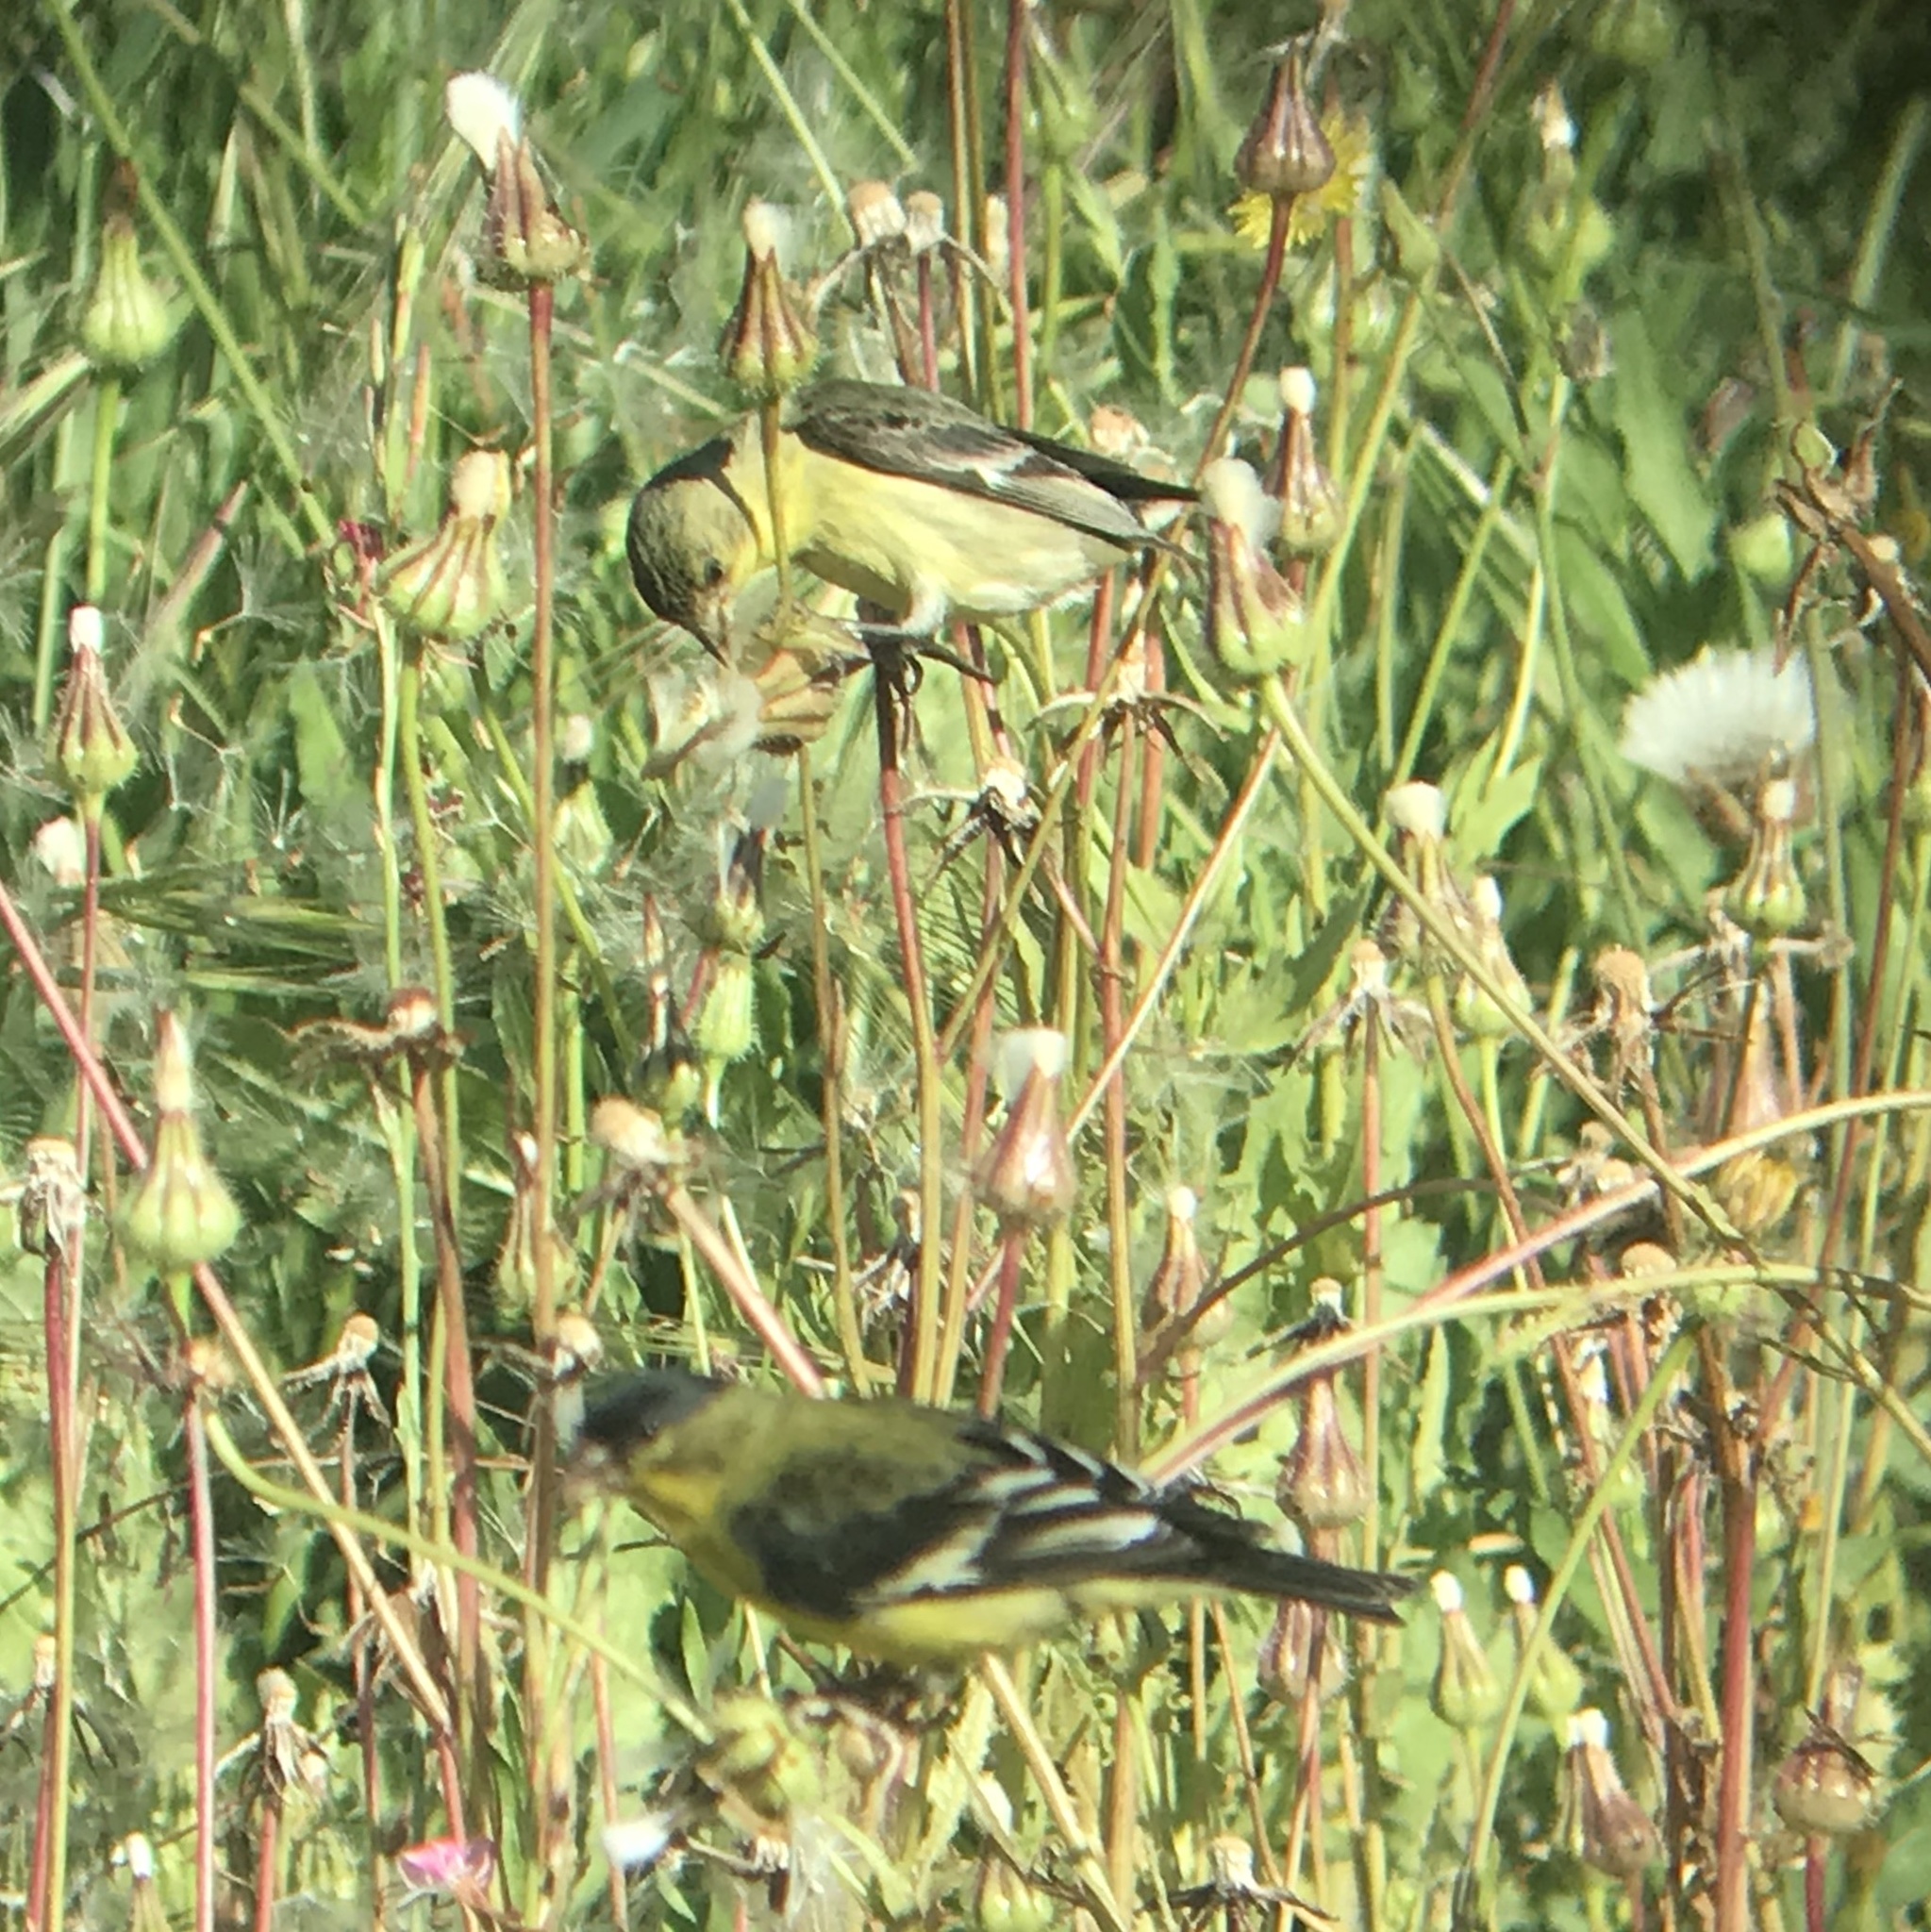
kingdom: Plantae
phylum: Tracheophyta
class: Magnoliopsida
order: Asterales
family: Asteraceae
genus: Urospermum
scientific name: Urospermum picroides
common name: False hawkbit
